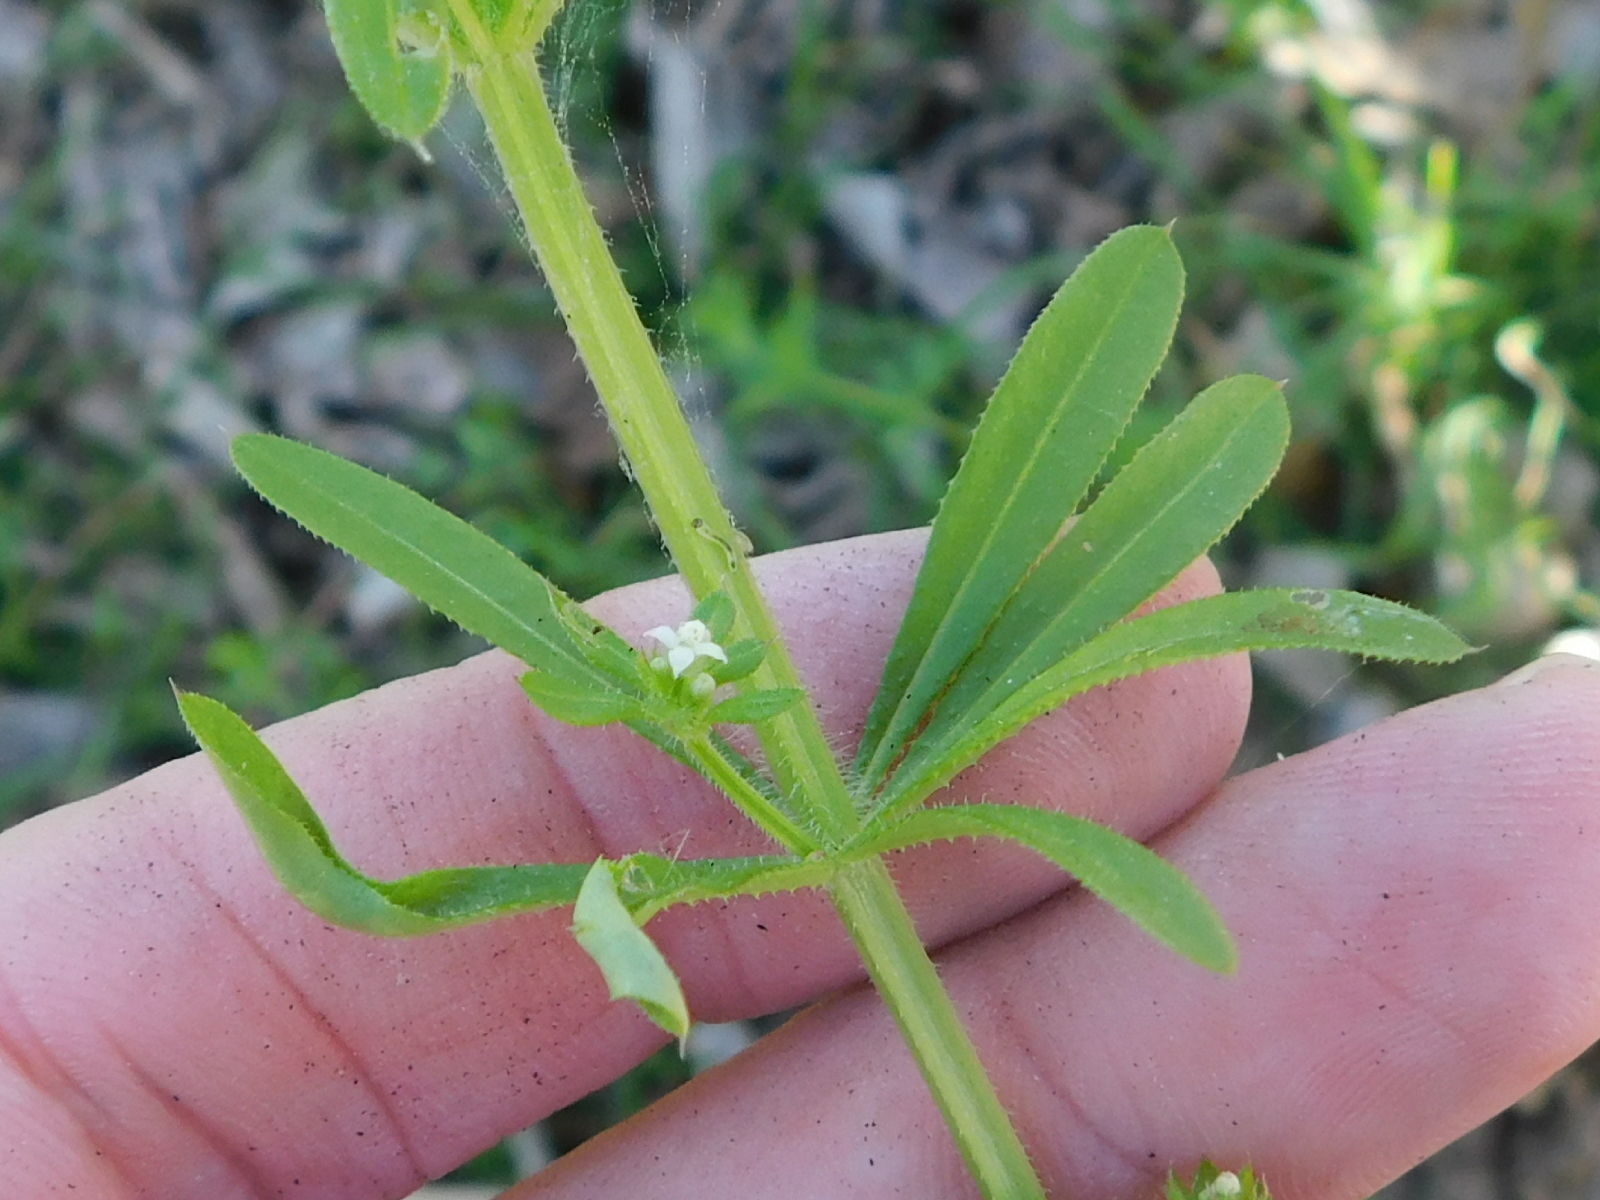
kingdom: Plantae
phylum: Tracheophyta
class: Magnoliopsida
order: Gentianales
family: Rubiaceae
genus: Galium
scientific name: Galium aparine
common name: Cleavers
